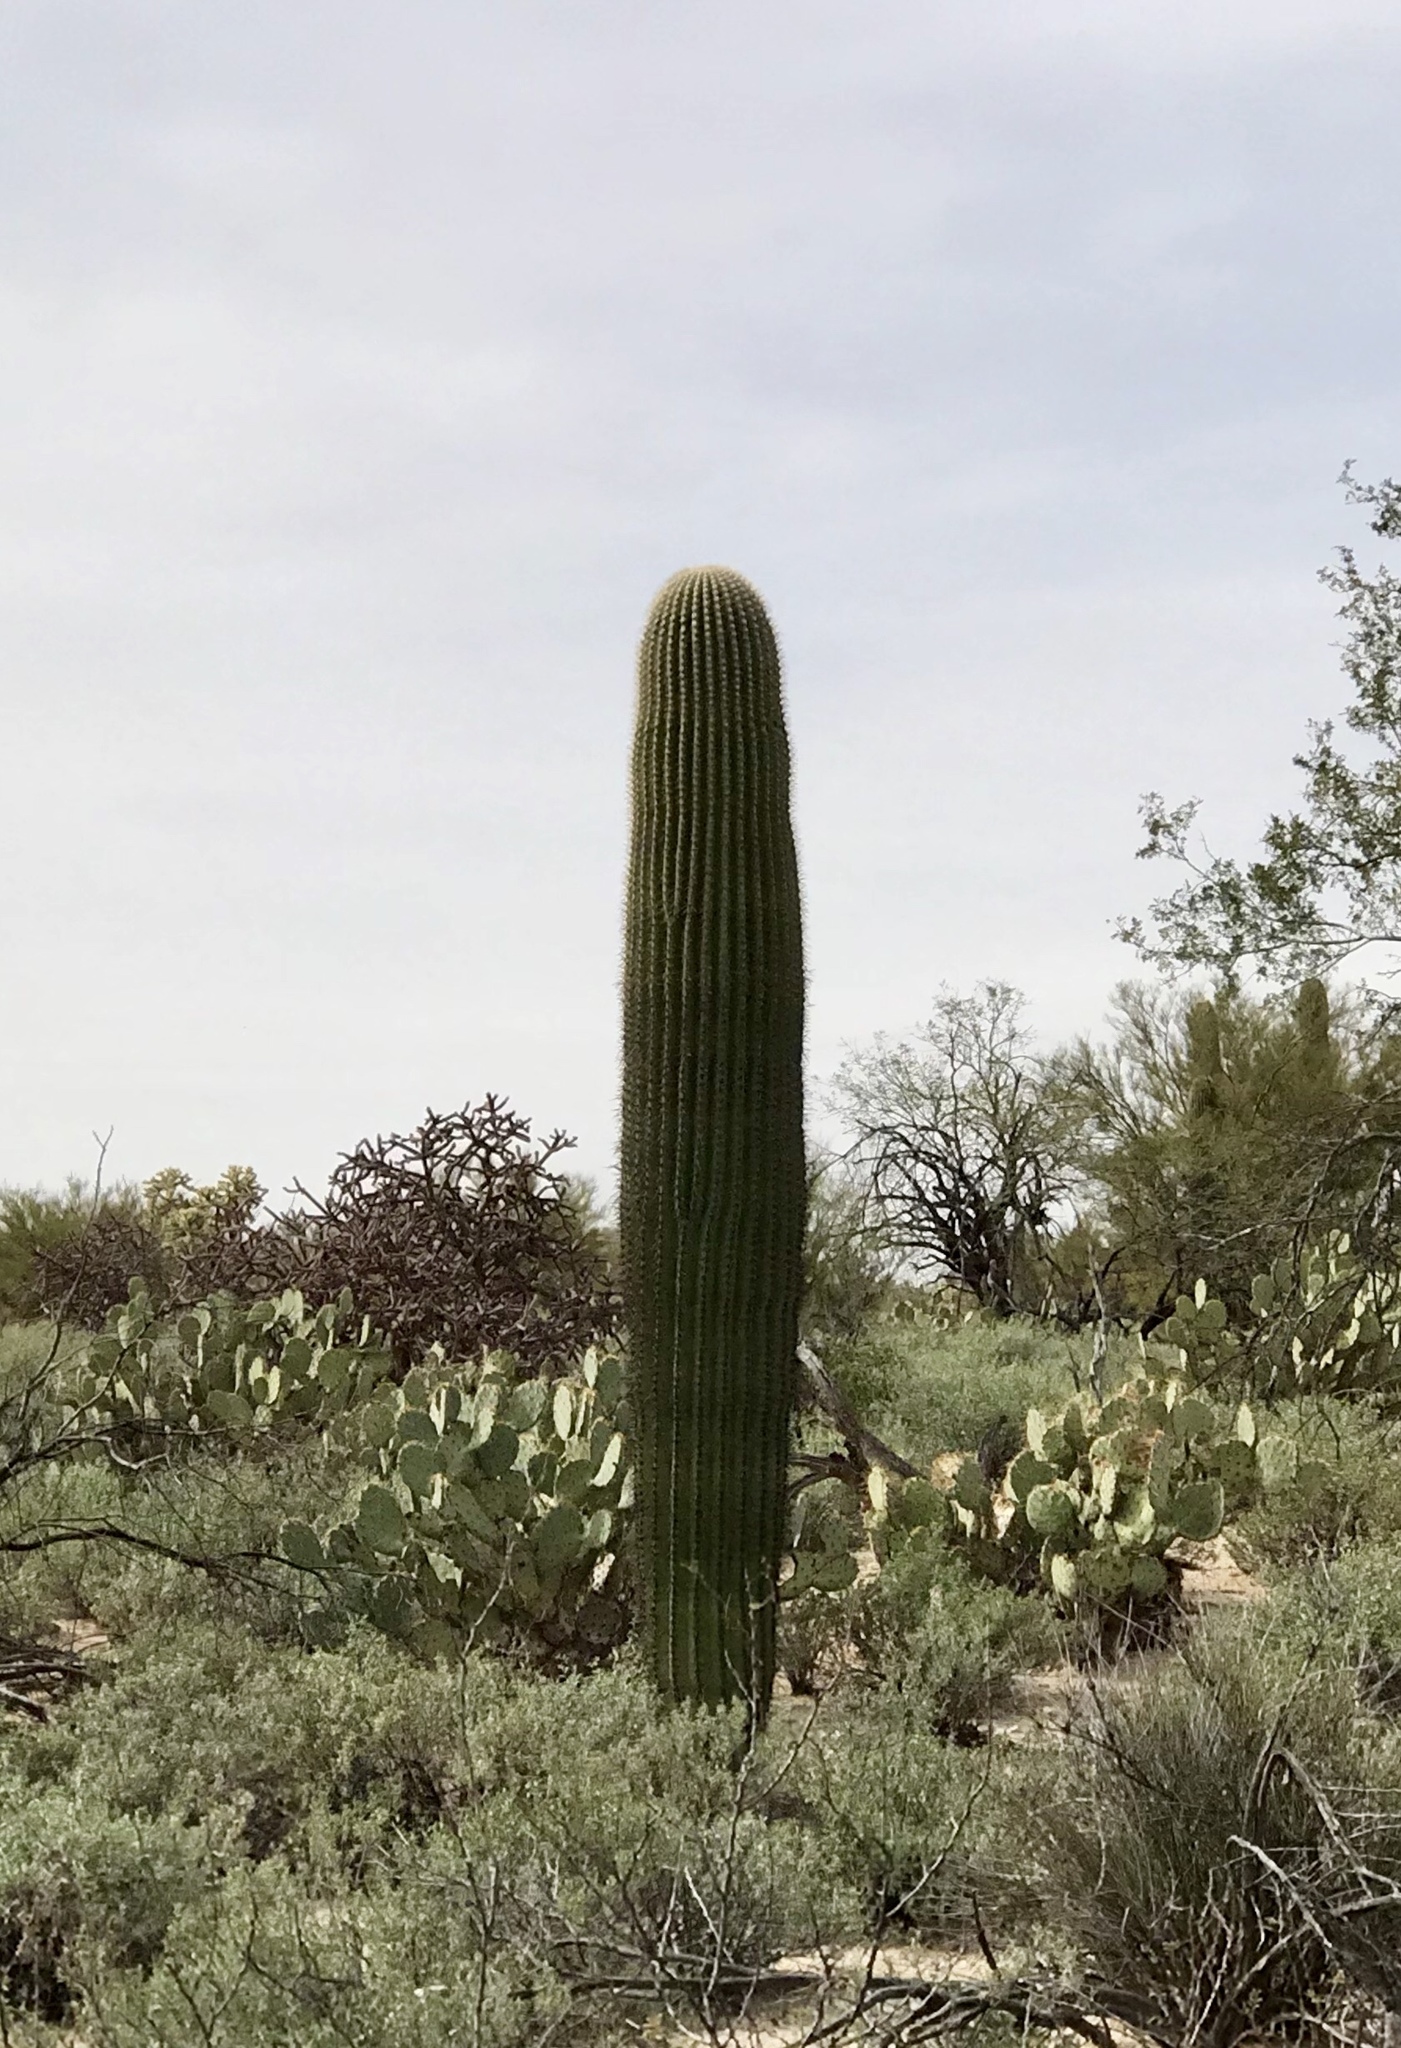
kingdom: Plantae
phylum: Tracheophyta
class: Magnoliopsida
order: Caryophyllales
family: Cactaceae
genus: Carnegiea
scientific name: Carnegiea gigantea
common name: Saguaro
